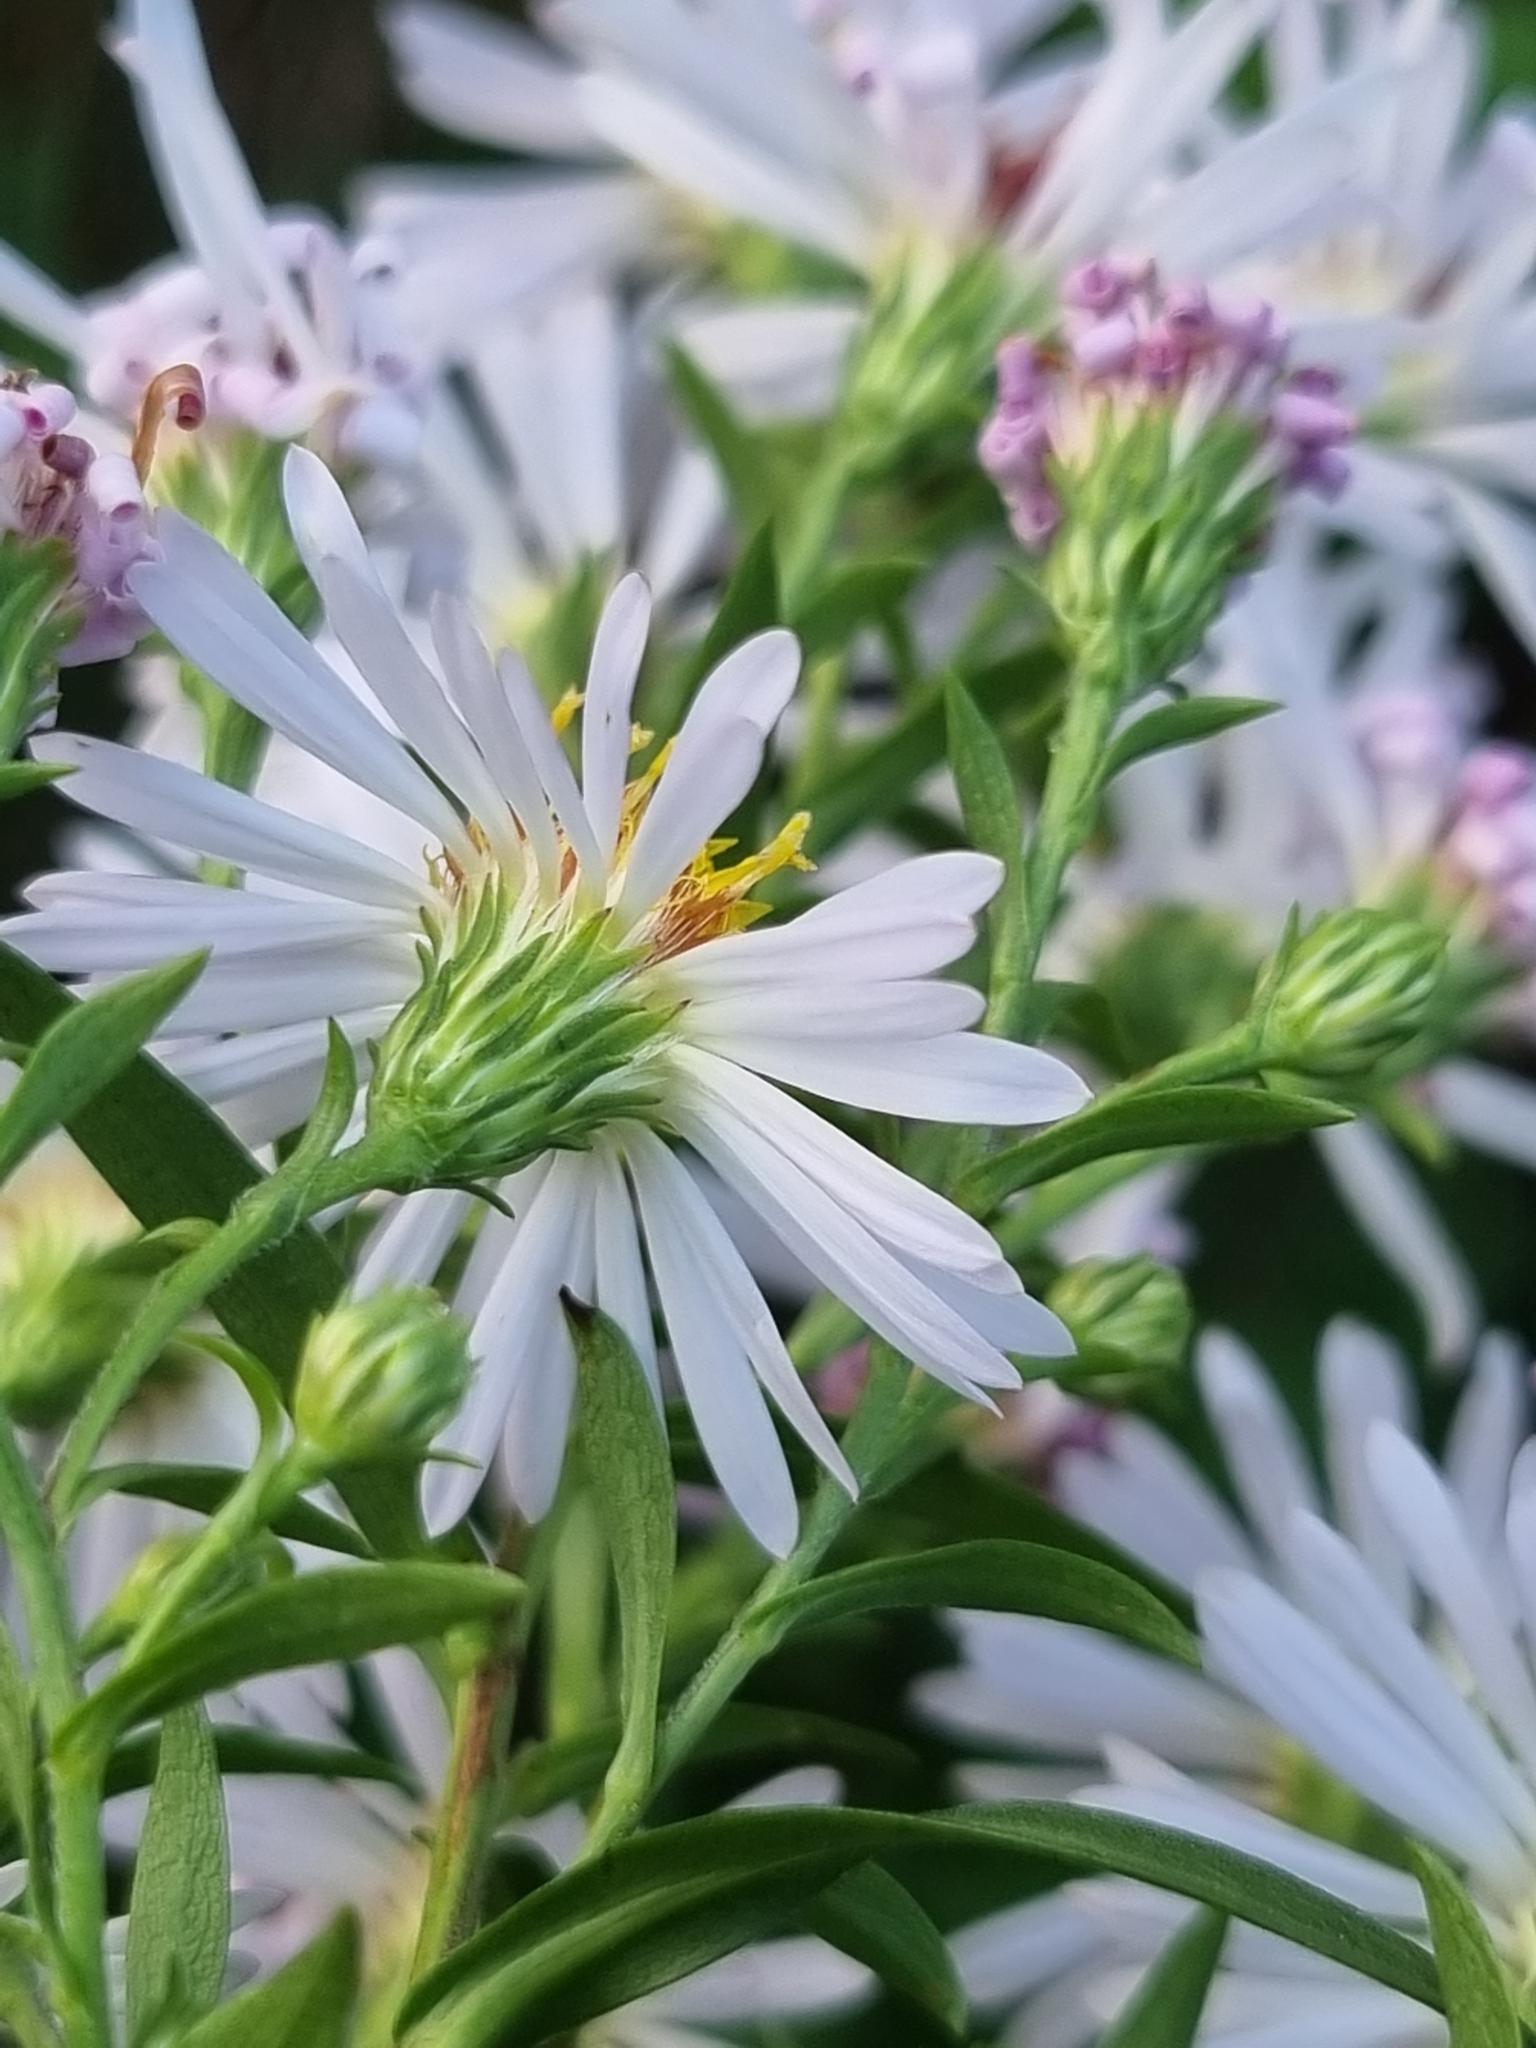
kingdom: Plantae
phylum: Tracheophyta
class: Magnoliopsida
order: Asterales
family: Asteraceae
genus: Symphyotrichum
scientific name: Symphyotrichum lanceolatum
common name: Panicled aster
